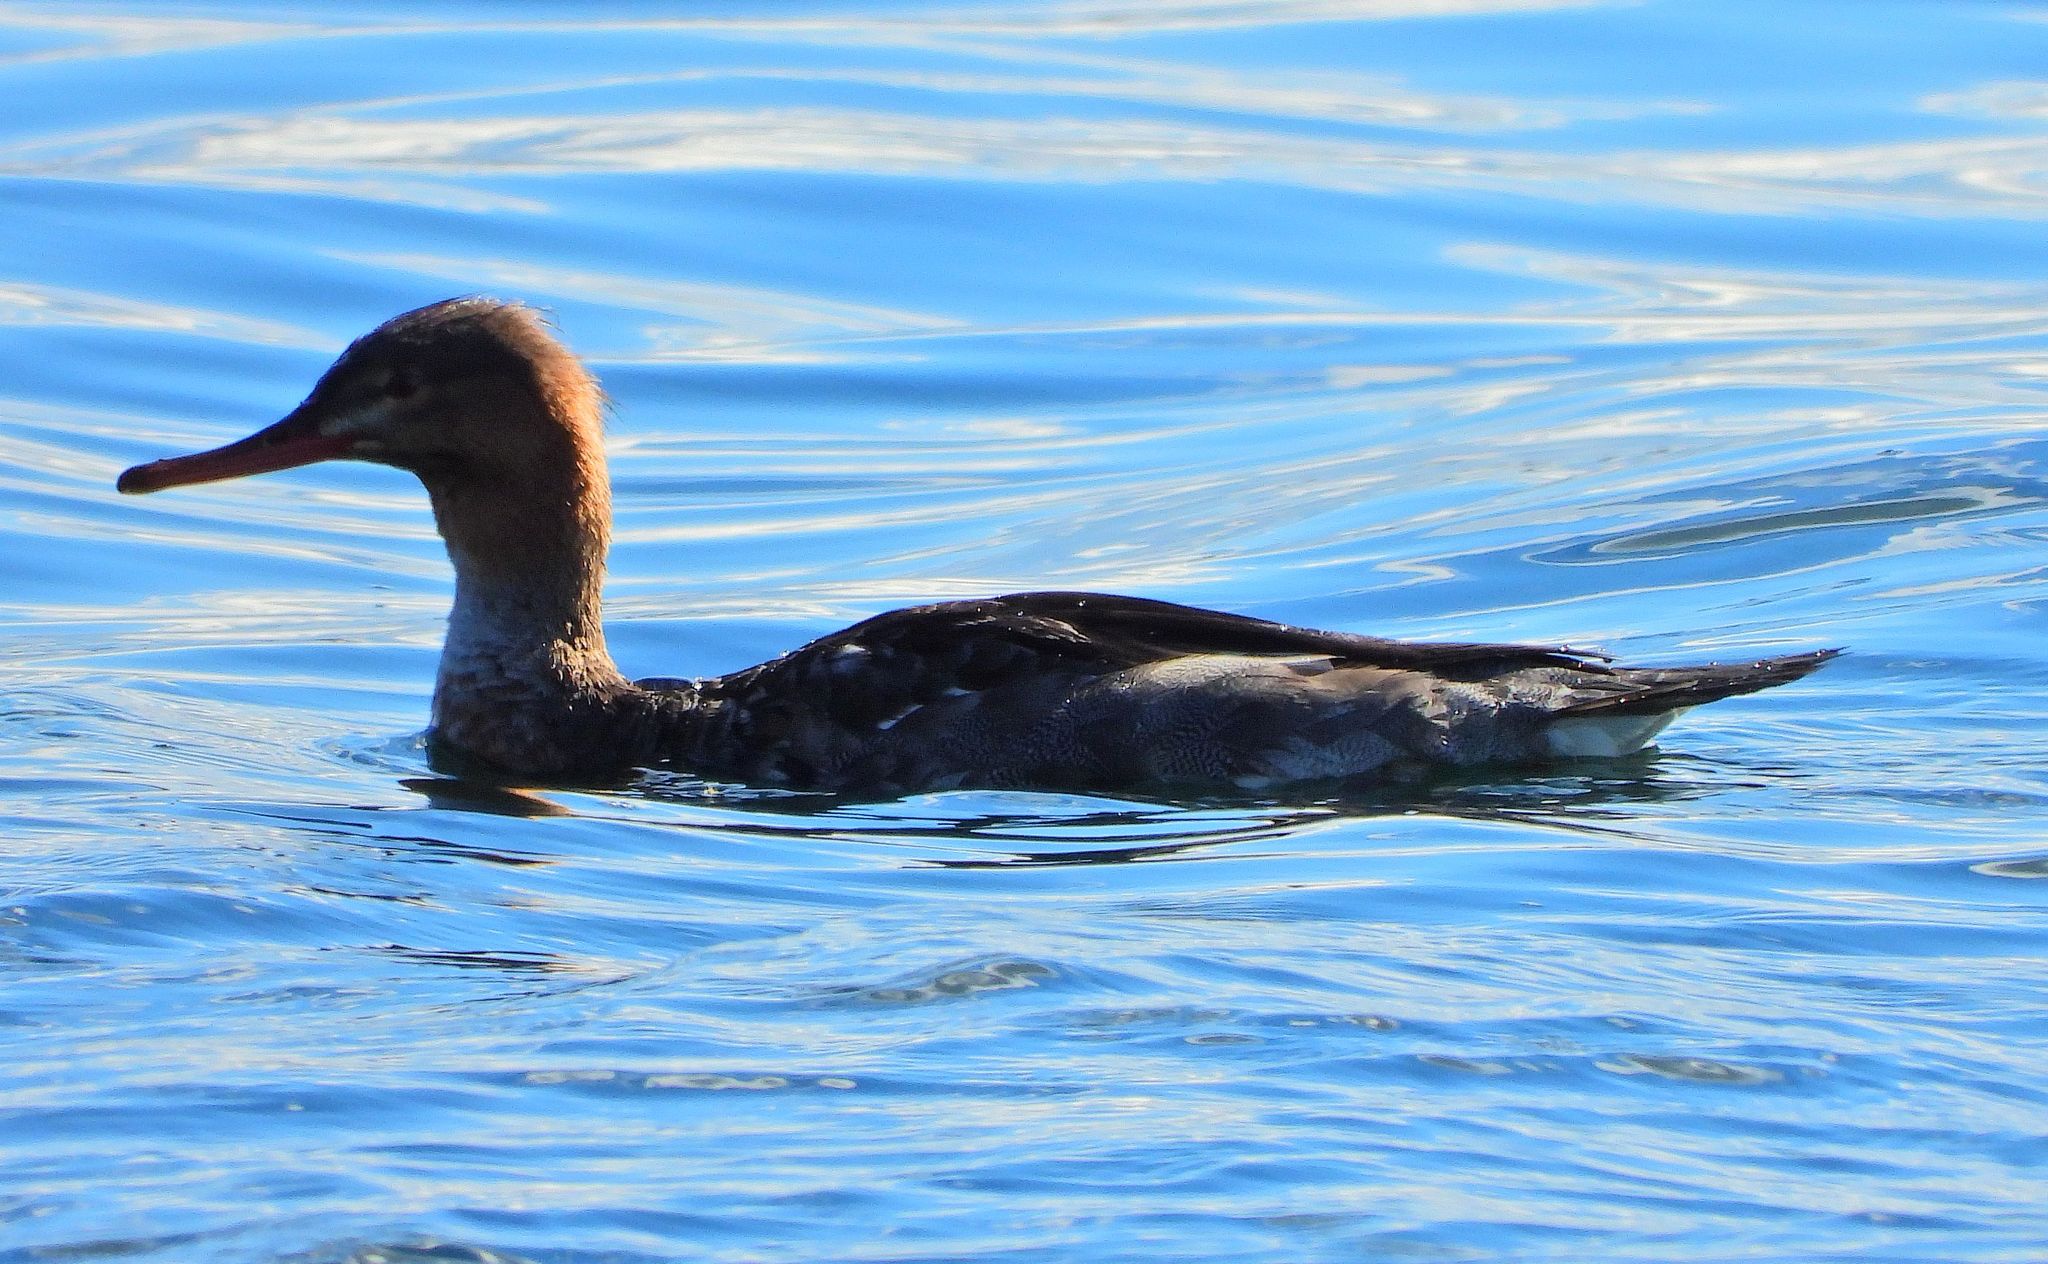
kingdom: Animalia
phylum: Chordata
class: Aves
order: Anseriformes
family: Anatidae
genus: Mergus
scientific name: Mergus serrator
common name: Red-breasted merganser
